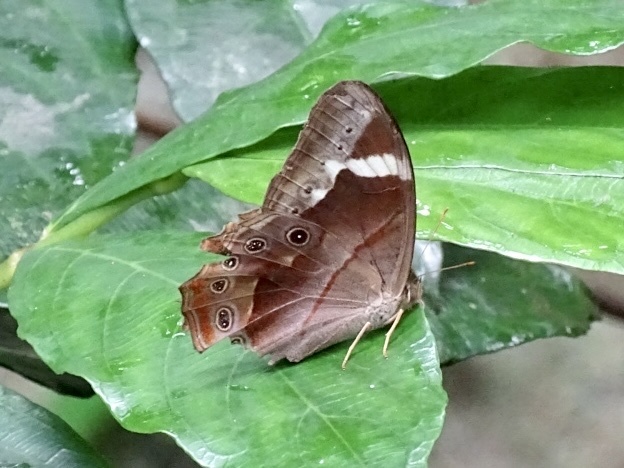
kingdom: Animalia
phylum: Arthropoda
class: Insecta
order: Lepidoptera
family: Nymphalidae
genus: Lethe
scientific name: Lethe chandica
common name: Angled red forester
